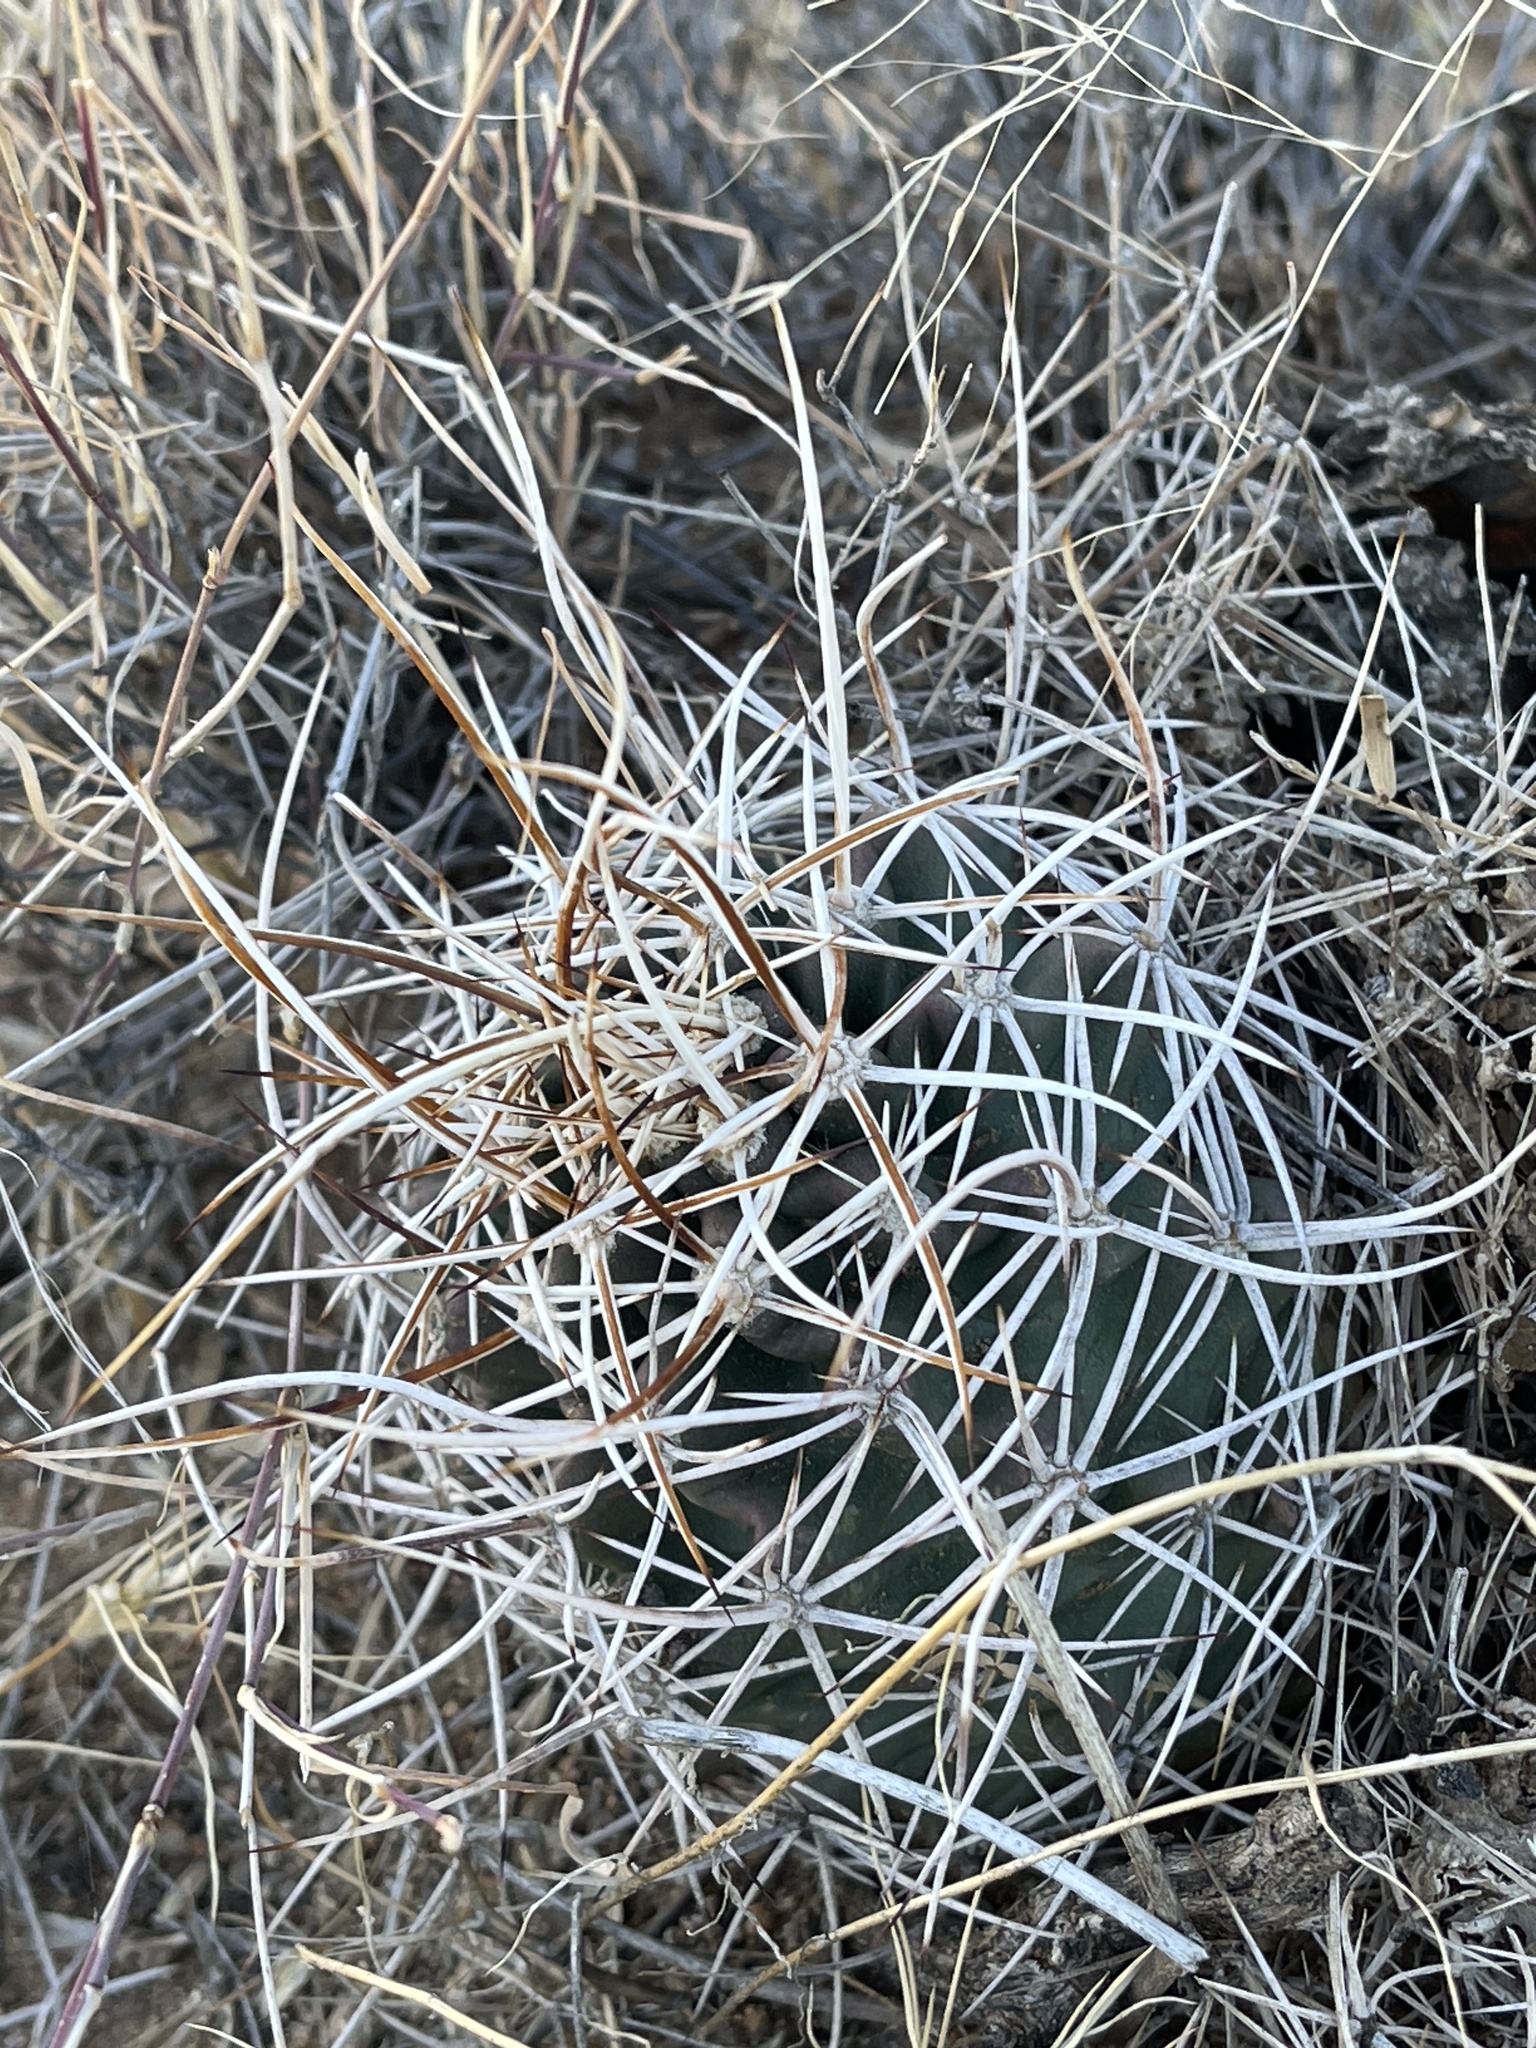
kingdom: Plantae
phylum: Tracheophyta
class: Magnoliopsida
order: Caryophyllales
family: Cactaceae
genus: Echinocereus
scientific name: Echinocereus fendleri
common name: Fendler's hedgehog cactus
